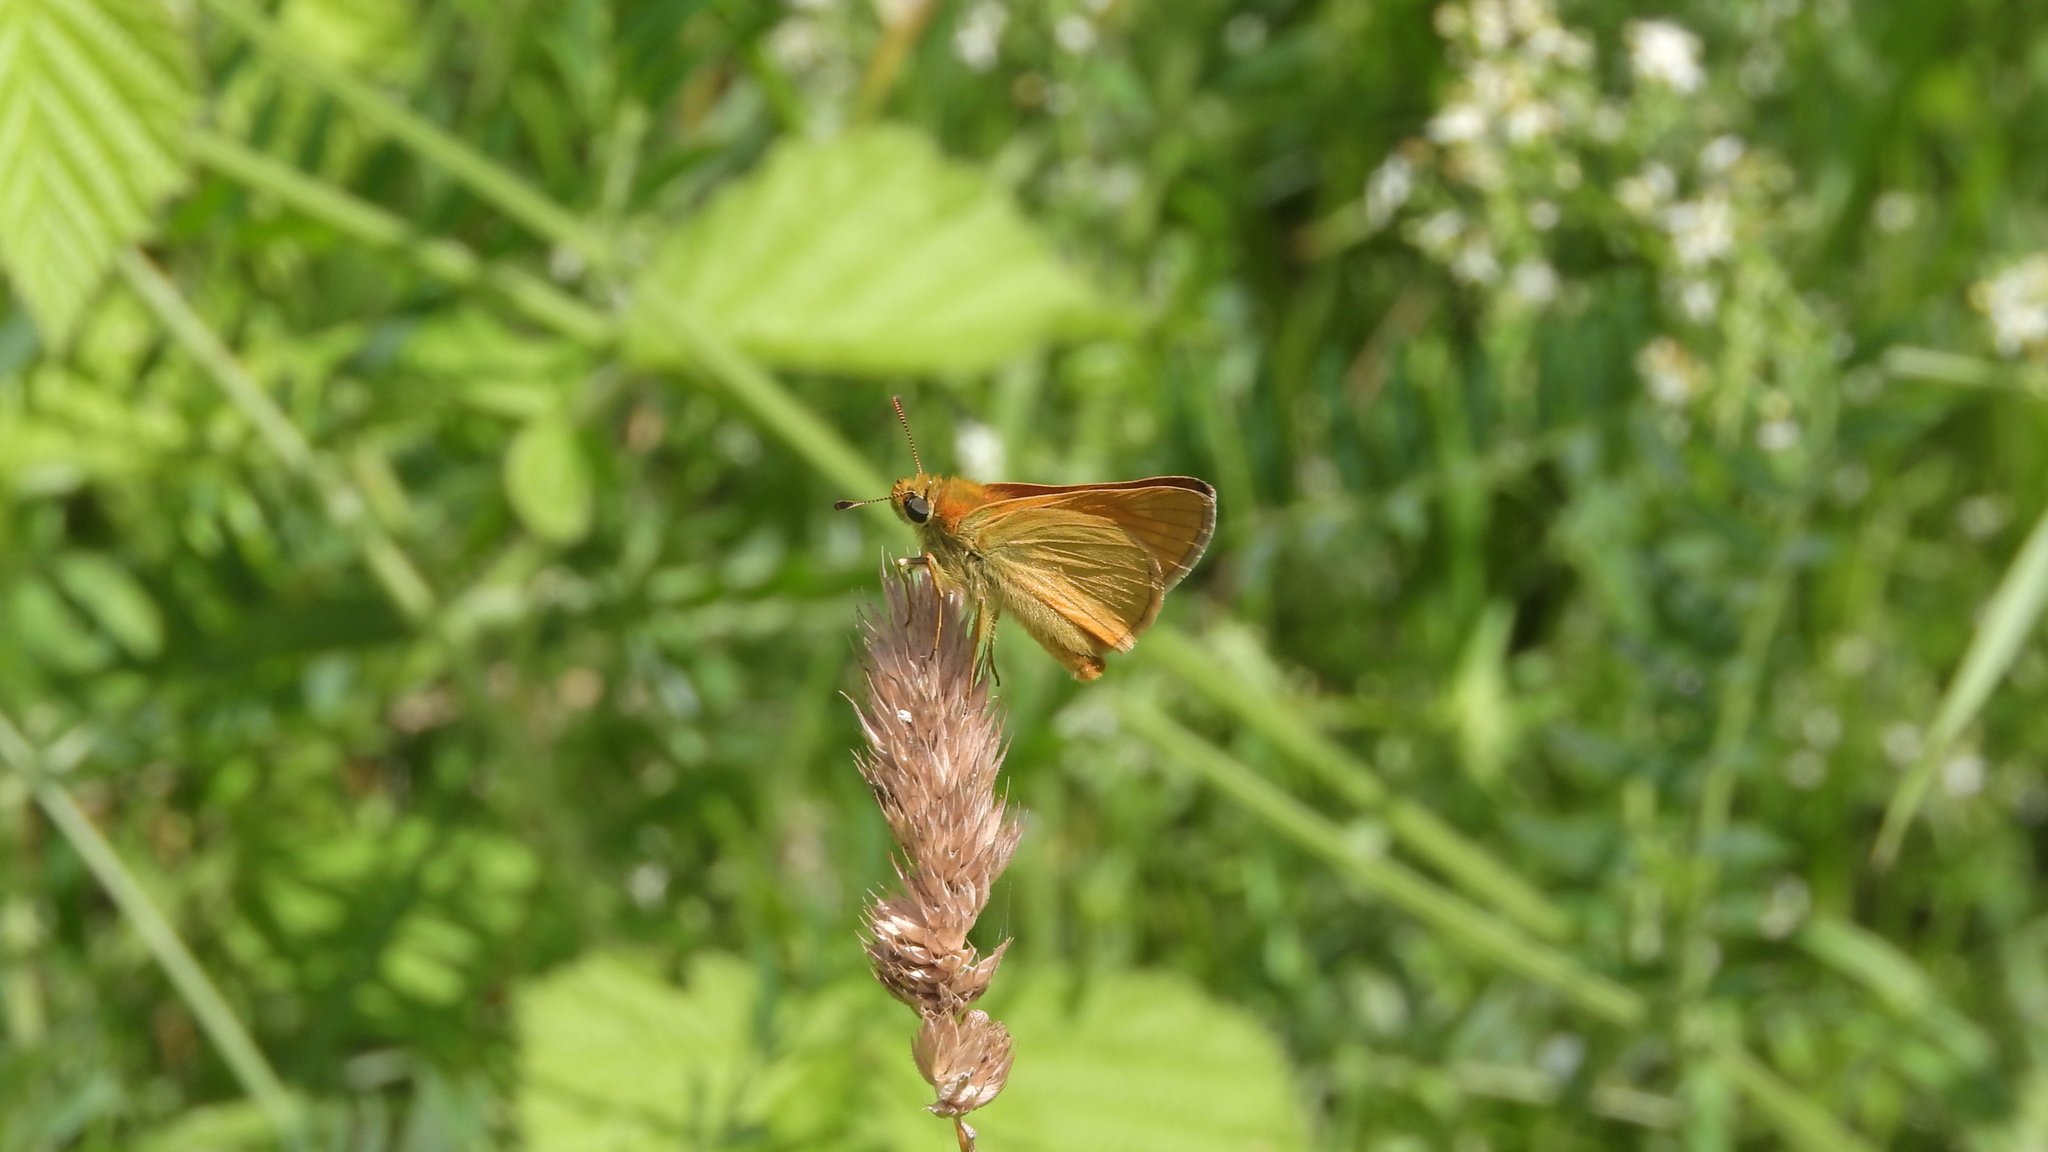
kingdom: Animalia
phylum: Arthropoda
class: Insecta
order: Lepidoptera
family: Hesperiidae
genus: Ochlodes
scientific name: Ochlodes venata
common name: Large skipper
